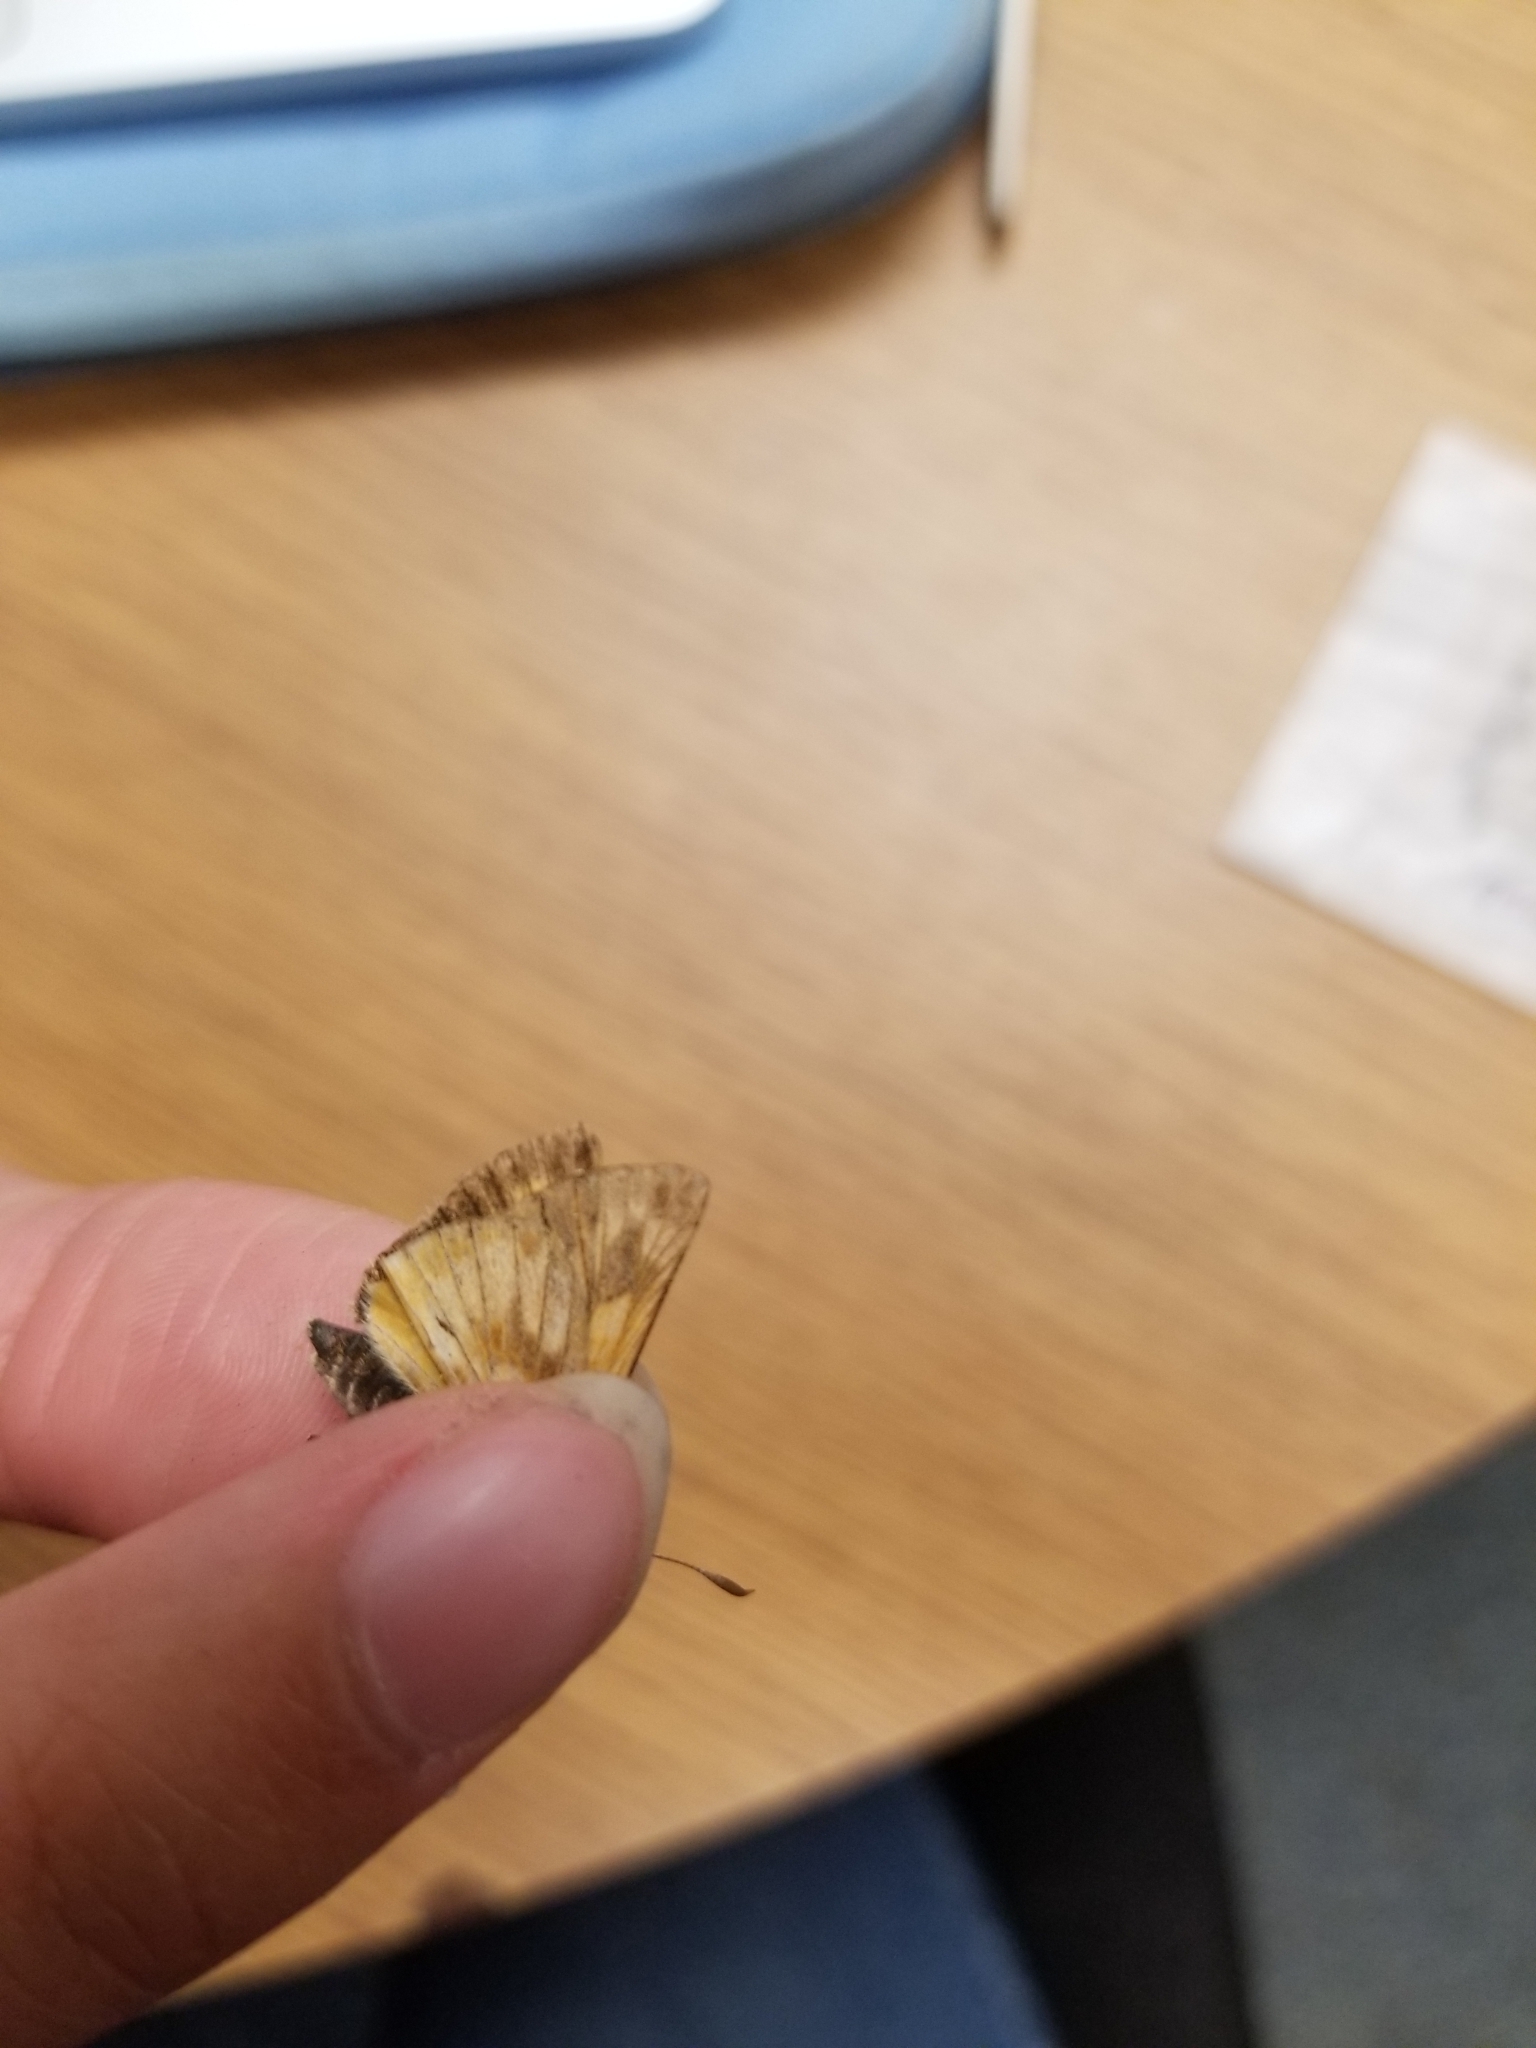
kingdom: Animalia
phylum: Arthropoda
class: Insecta
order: Lepidoptera
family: Hesperiidae
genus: Polites
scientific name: Polites mystic
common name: Long dash
